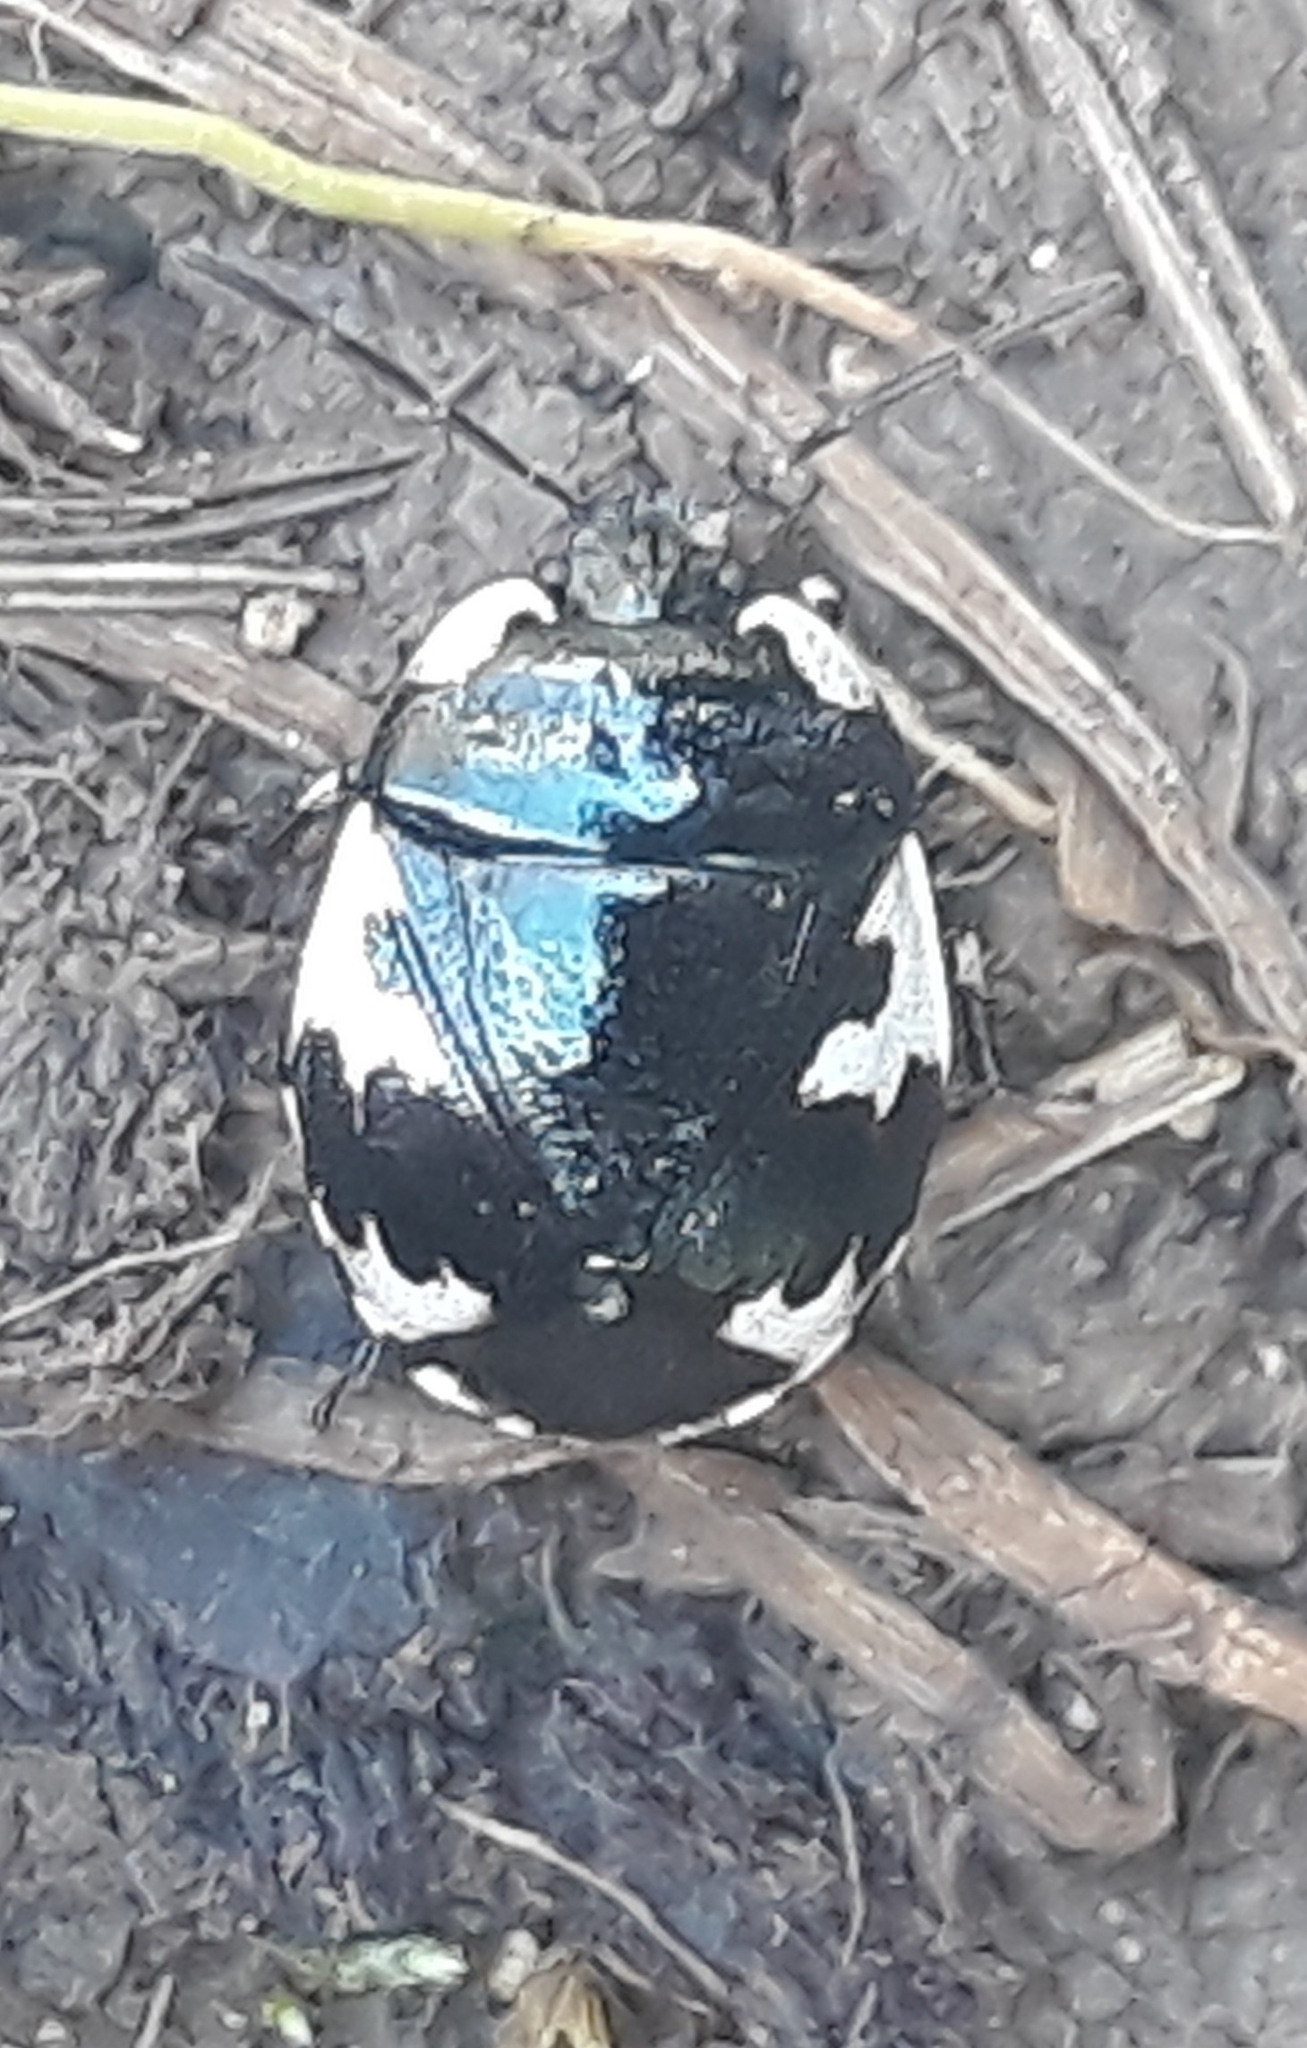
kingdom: Animalia
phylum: Arthropoda
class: Insecta
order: Hemiptera
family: Cydnidae
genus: Tritomegas
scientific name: Tritomegas rotundipennis
